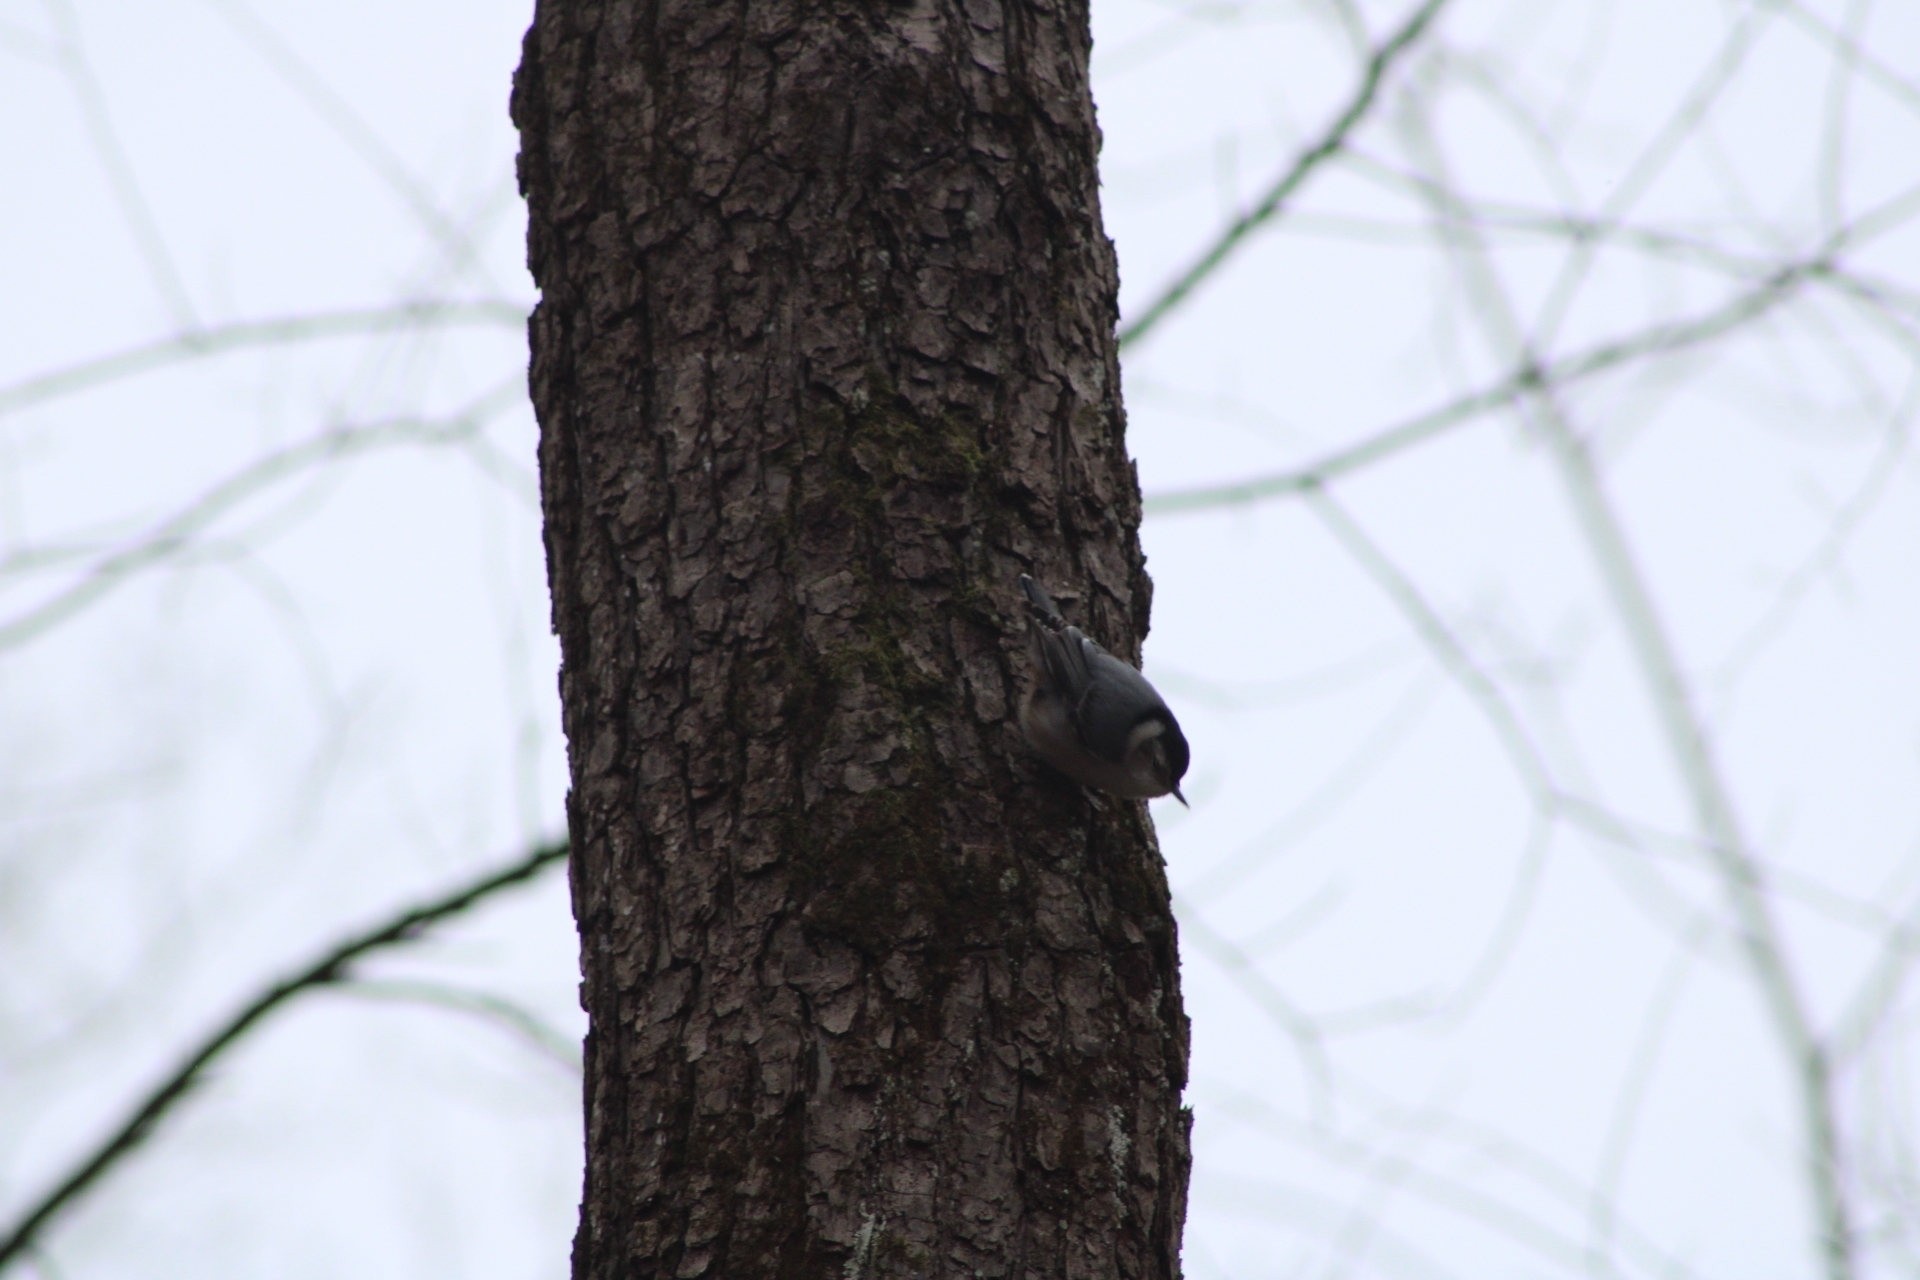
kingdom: Animalia
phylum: Chordata
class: Aves
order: Passeriformes
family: Sittidae
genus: Sitta
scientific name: Sitta carolinensis
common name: White-breasted nuthatch
